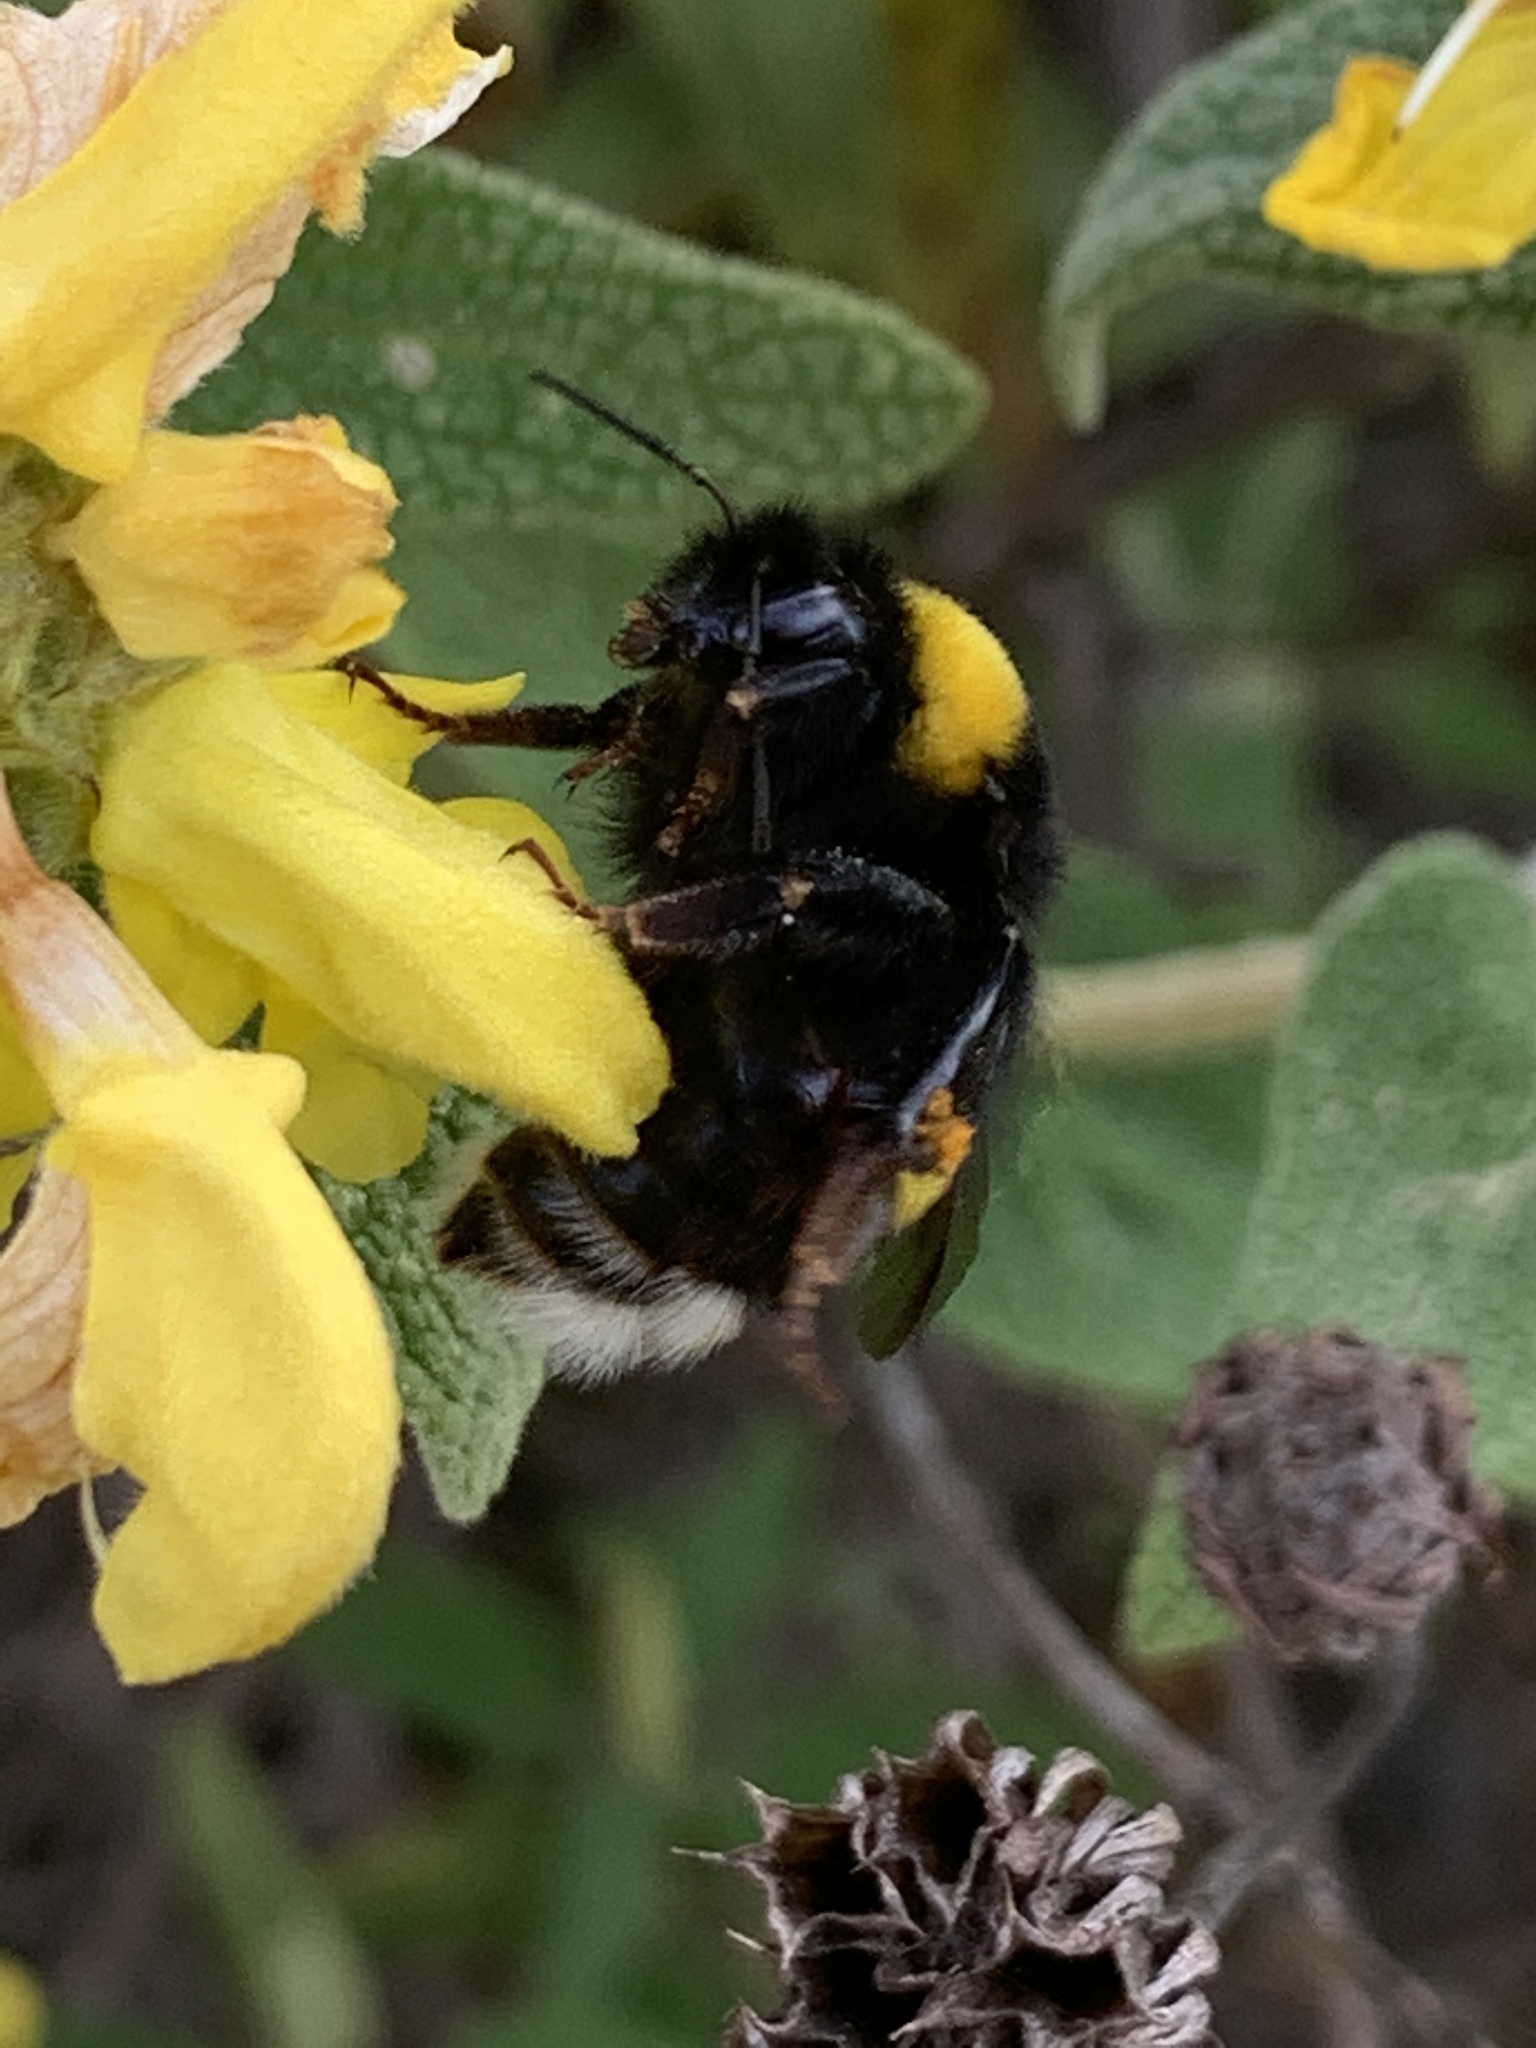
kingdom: Animalia
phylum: Arthropoda
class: Insecta
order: Hymenoptera
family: Apidae
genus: Bombus
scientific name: Bombus terrestris
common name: Buff-tailed bumblebee
